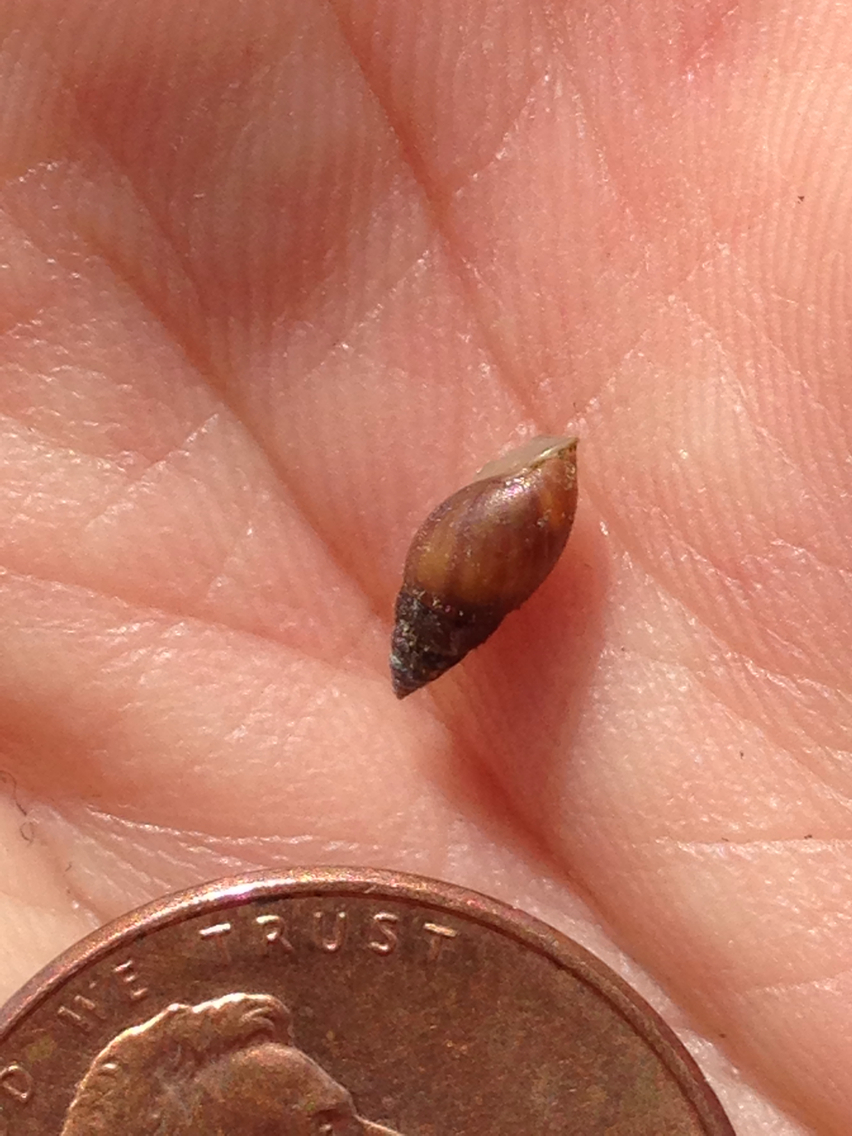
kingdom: Animalia
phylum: Mollusca
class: Gastropoda
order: Ellobiida
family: Ellobiidae
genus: Myosotella
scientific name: Myosotella myosotis
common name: Mouse-eared snail
